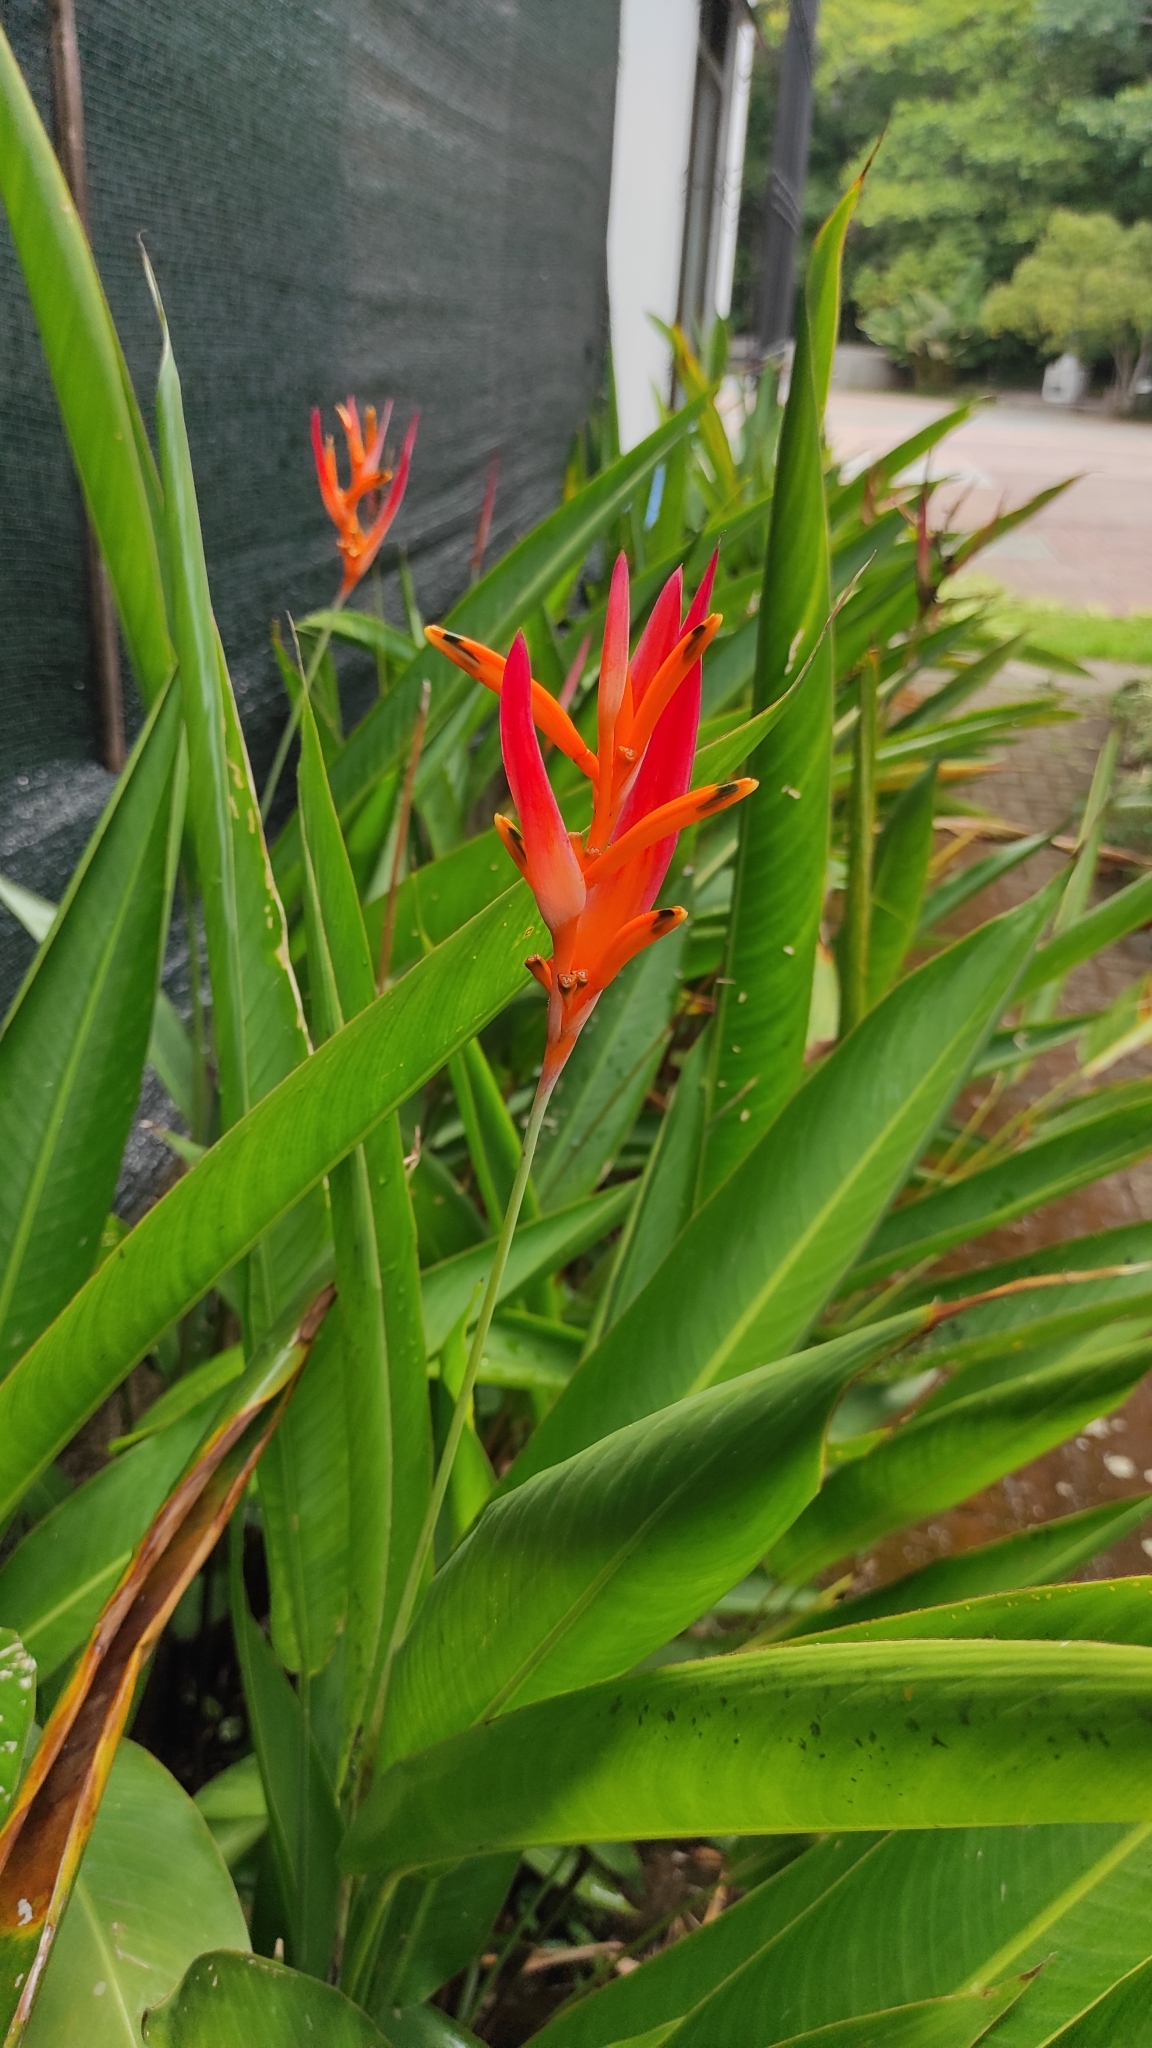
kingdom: Plantae
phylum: Tracheophyta
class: Liliopsida
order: Zingiberales
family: Heliconiaceae
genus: Heliconia
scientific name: Heliconia psittacorum
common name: Parrot's-flower
